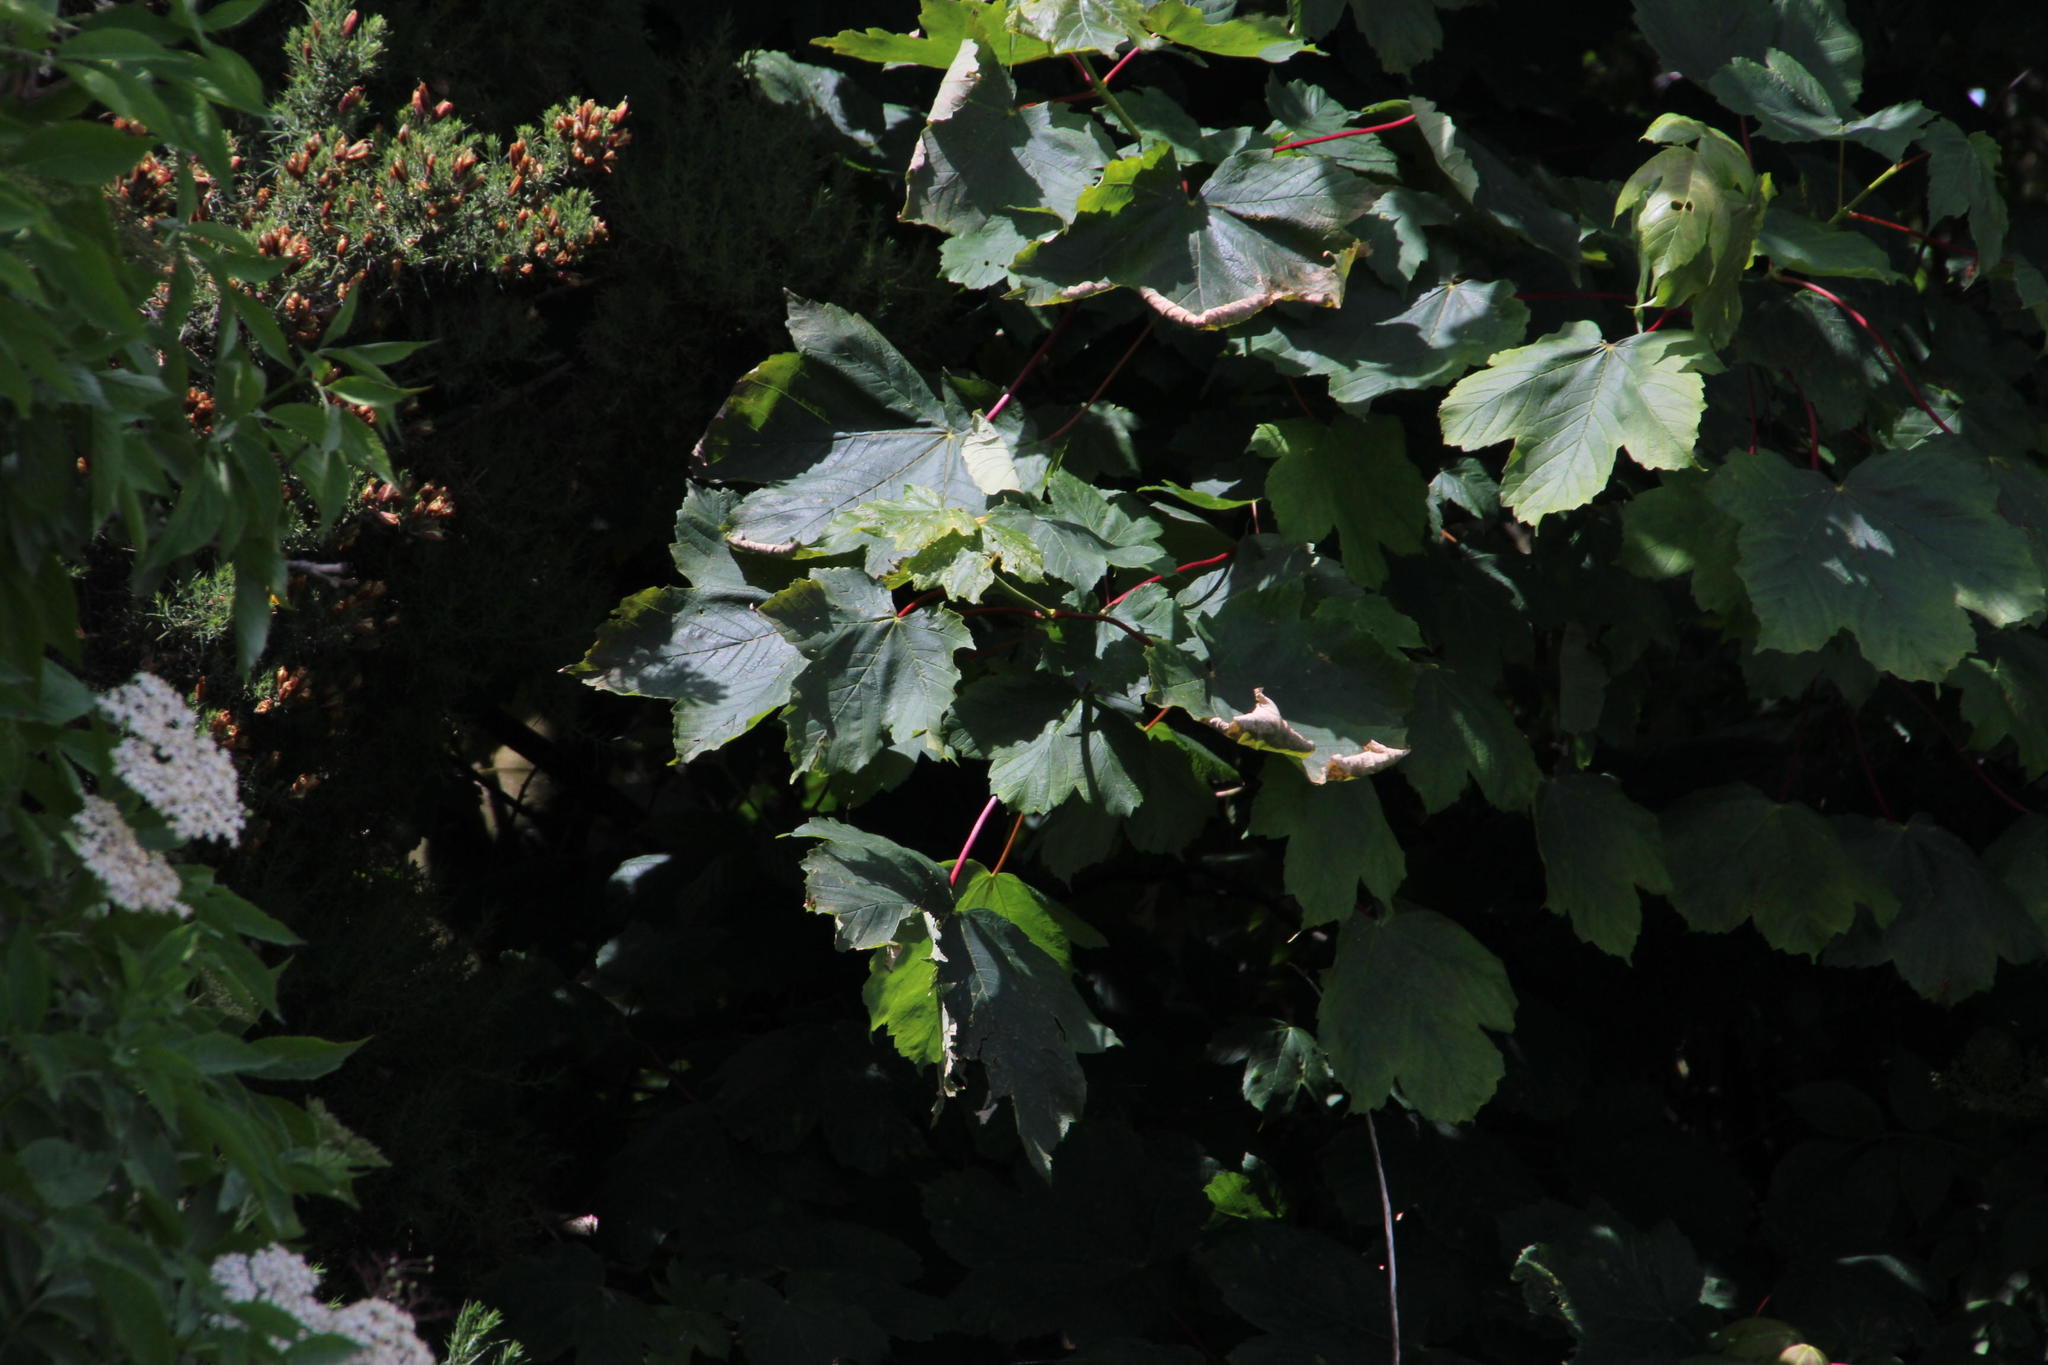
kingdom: Plantae
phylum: Tracheophyta
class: Magnoliopsida
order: Sapindales
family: Sapindaceae
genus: Acer
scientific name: Acer pseudoplatanus
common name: Sycamore
